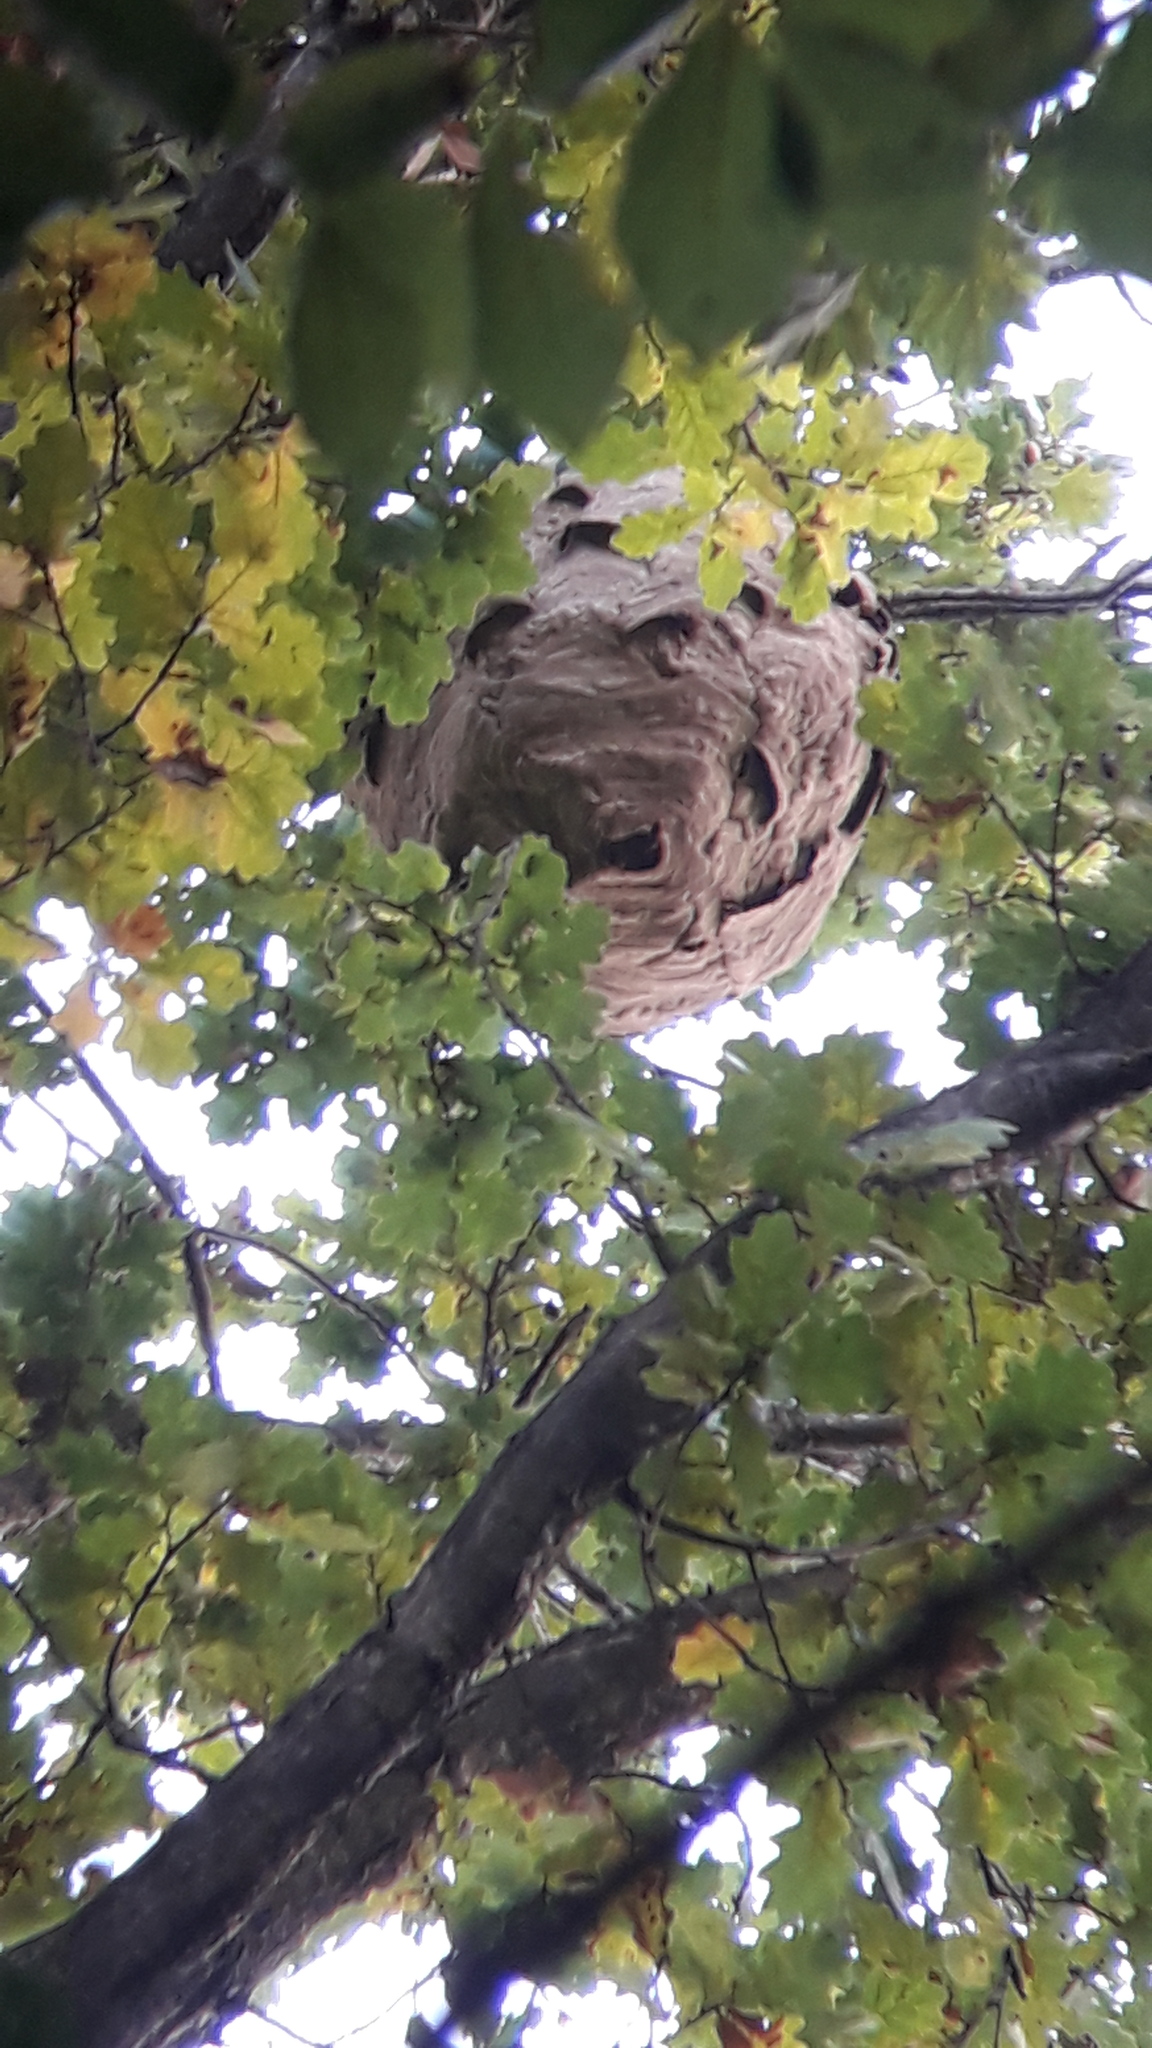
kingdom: Animalia
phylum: Arthropoda
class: Insecta
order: Hymenoptera
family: Vespidae
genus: Vespa
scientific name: Vespa velutina
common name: Asian hornet
